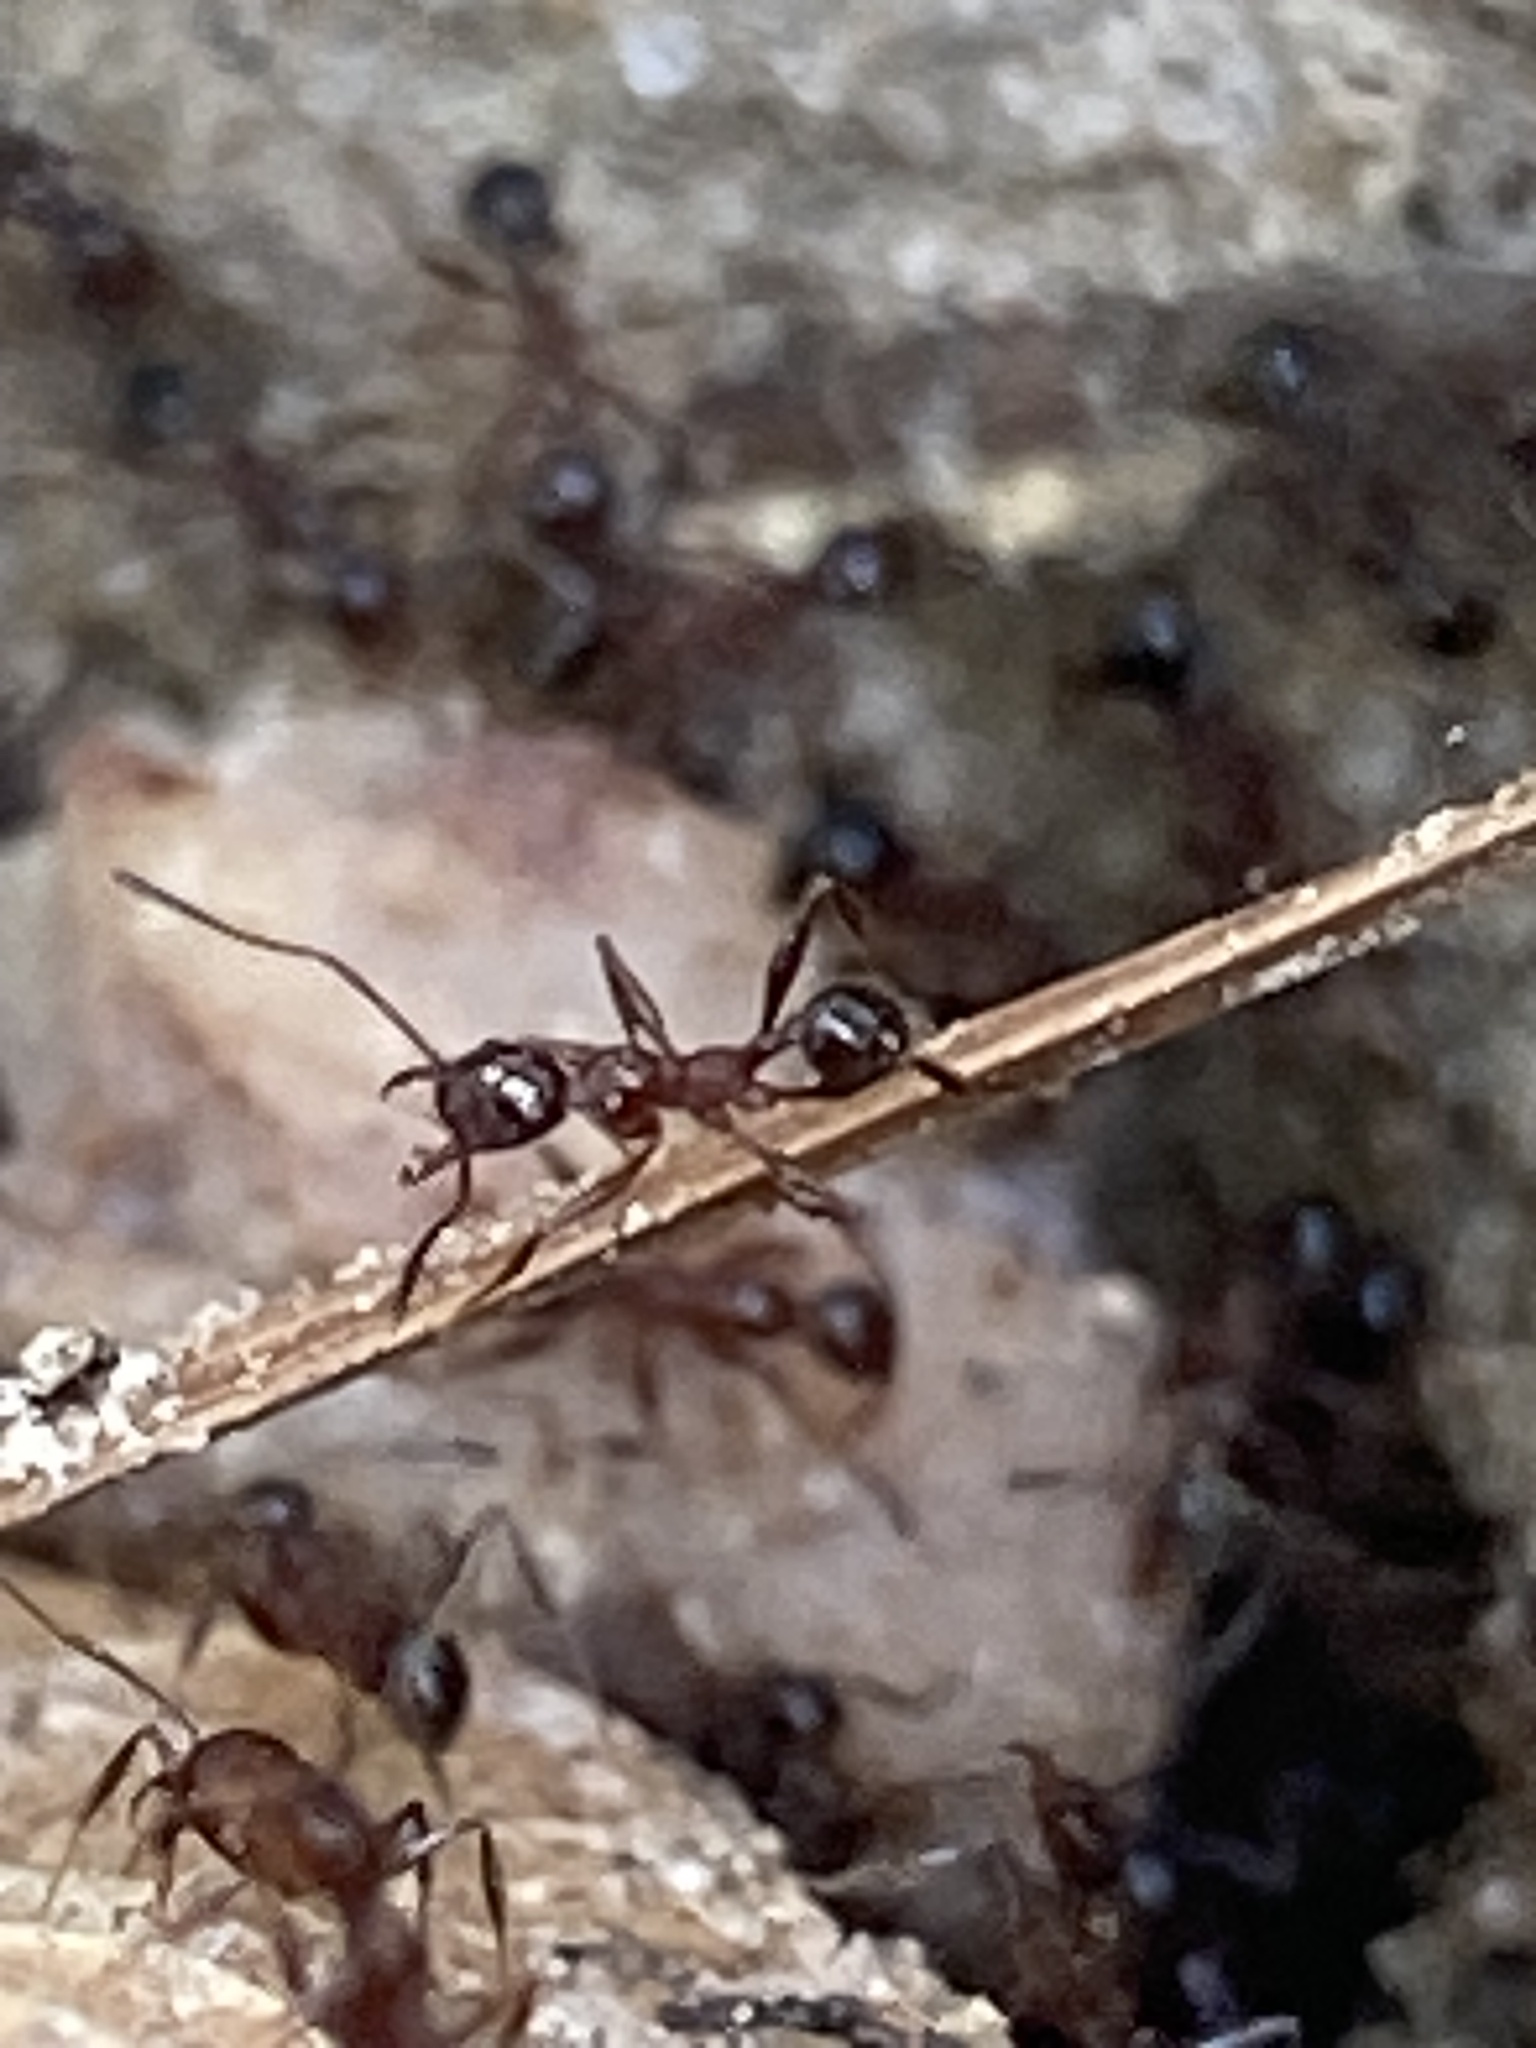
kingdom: Animalia
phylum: Arthropoda
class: Insecta
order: Hymenoptera
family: Formicidae
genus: Pheidole
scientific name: Pheidole obscurithorax
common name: Obscure big-headed ant
